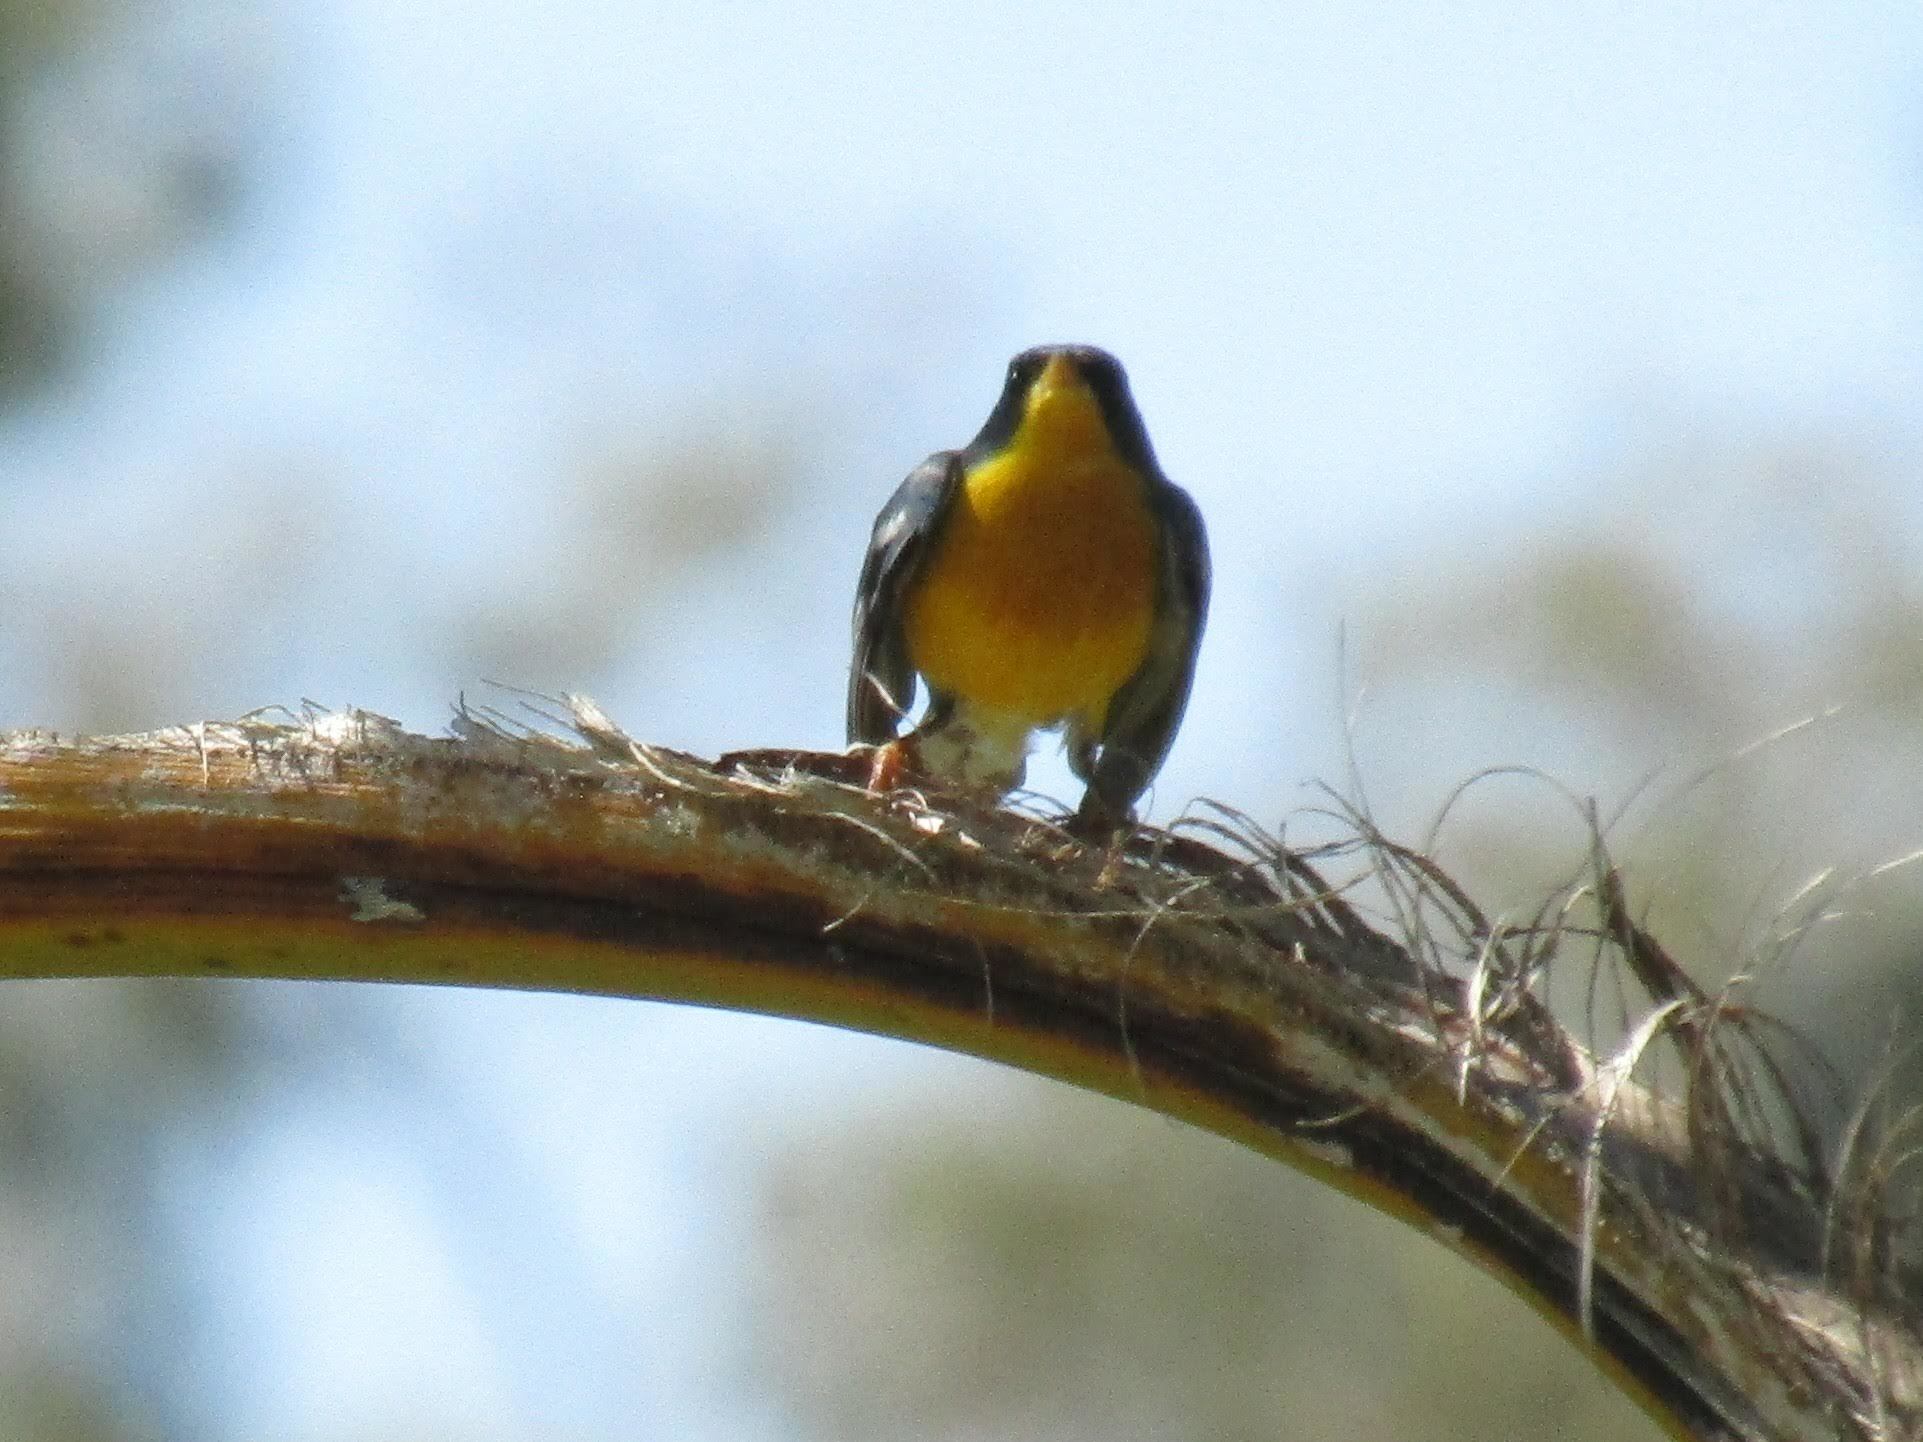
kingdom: Animalia
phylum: Chordata
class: Aves
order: Passeriformes
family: Parulidae
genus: Setophaga
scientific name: Setophaga pitiayumi
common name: Tropical parula
